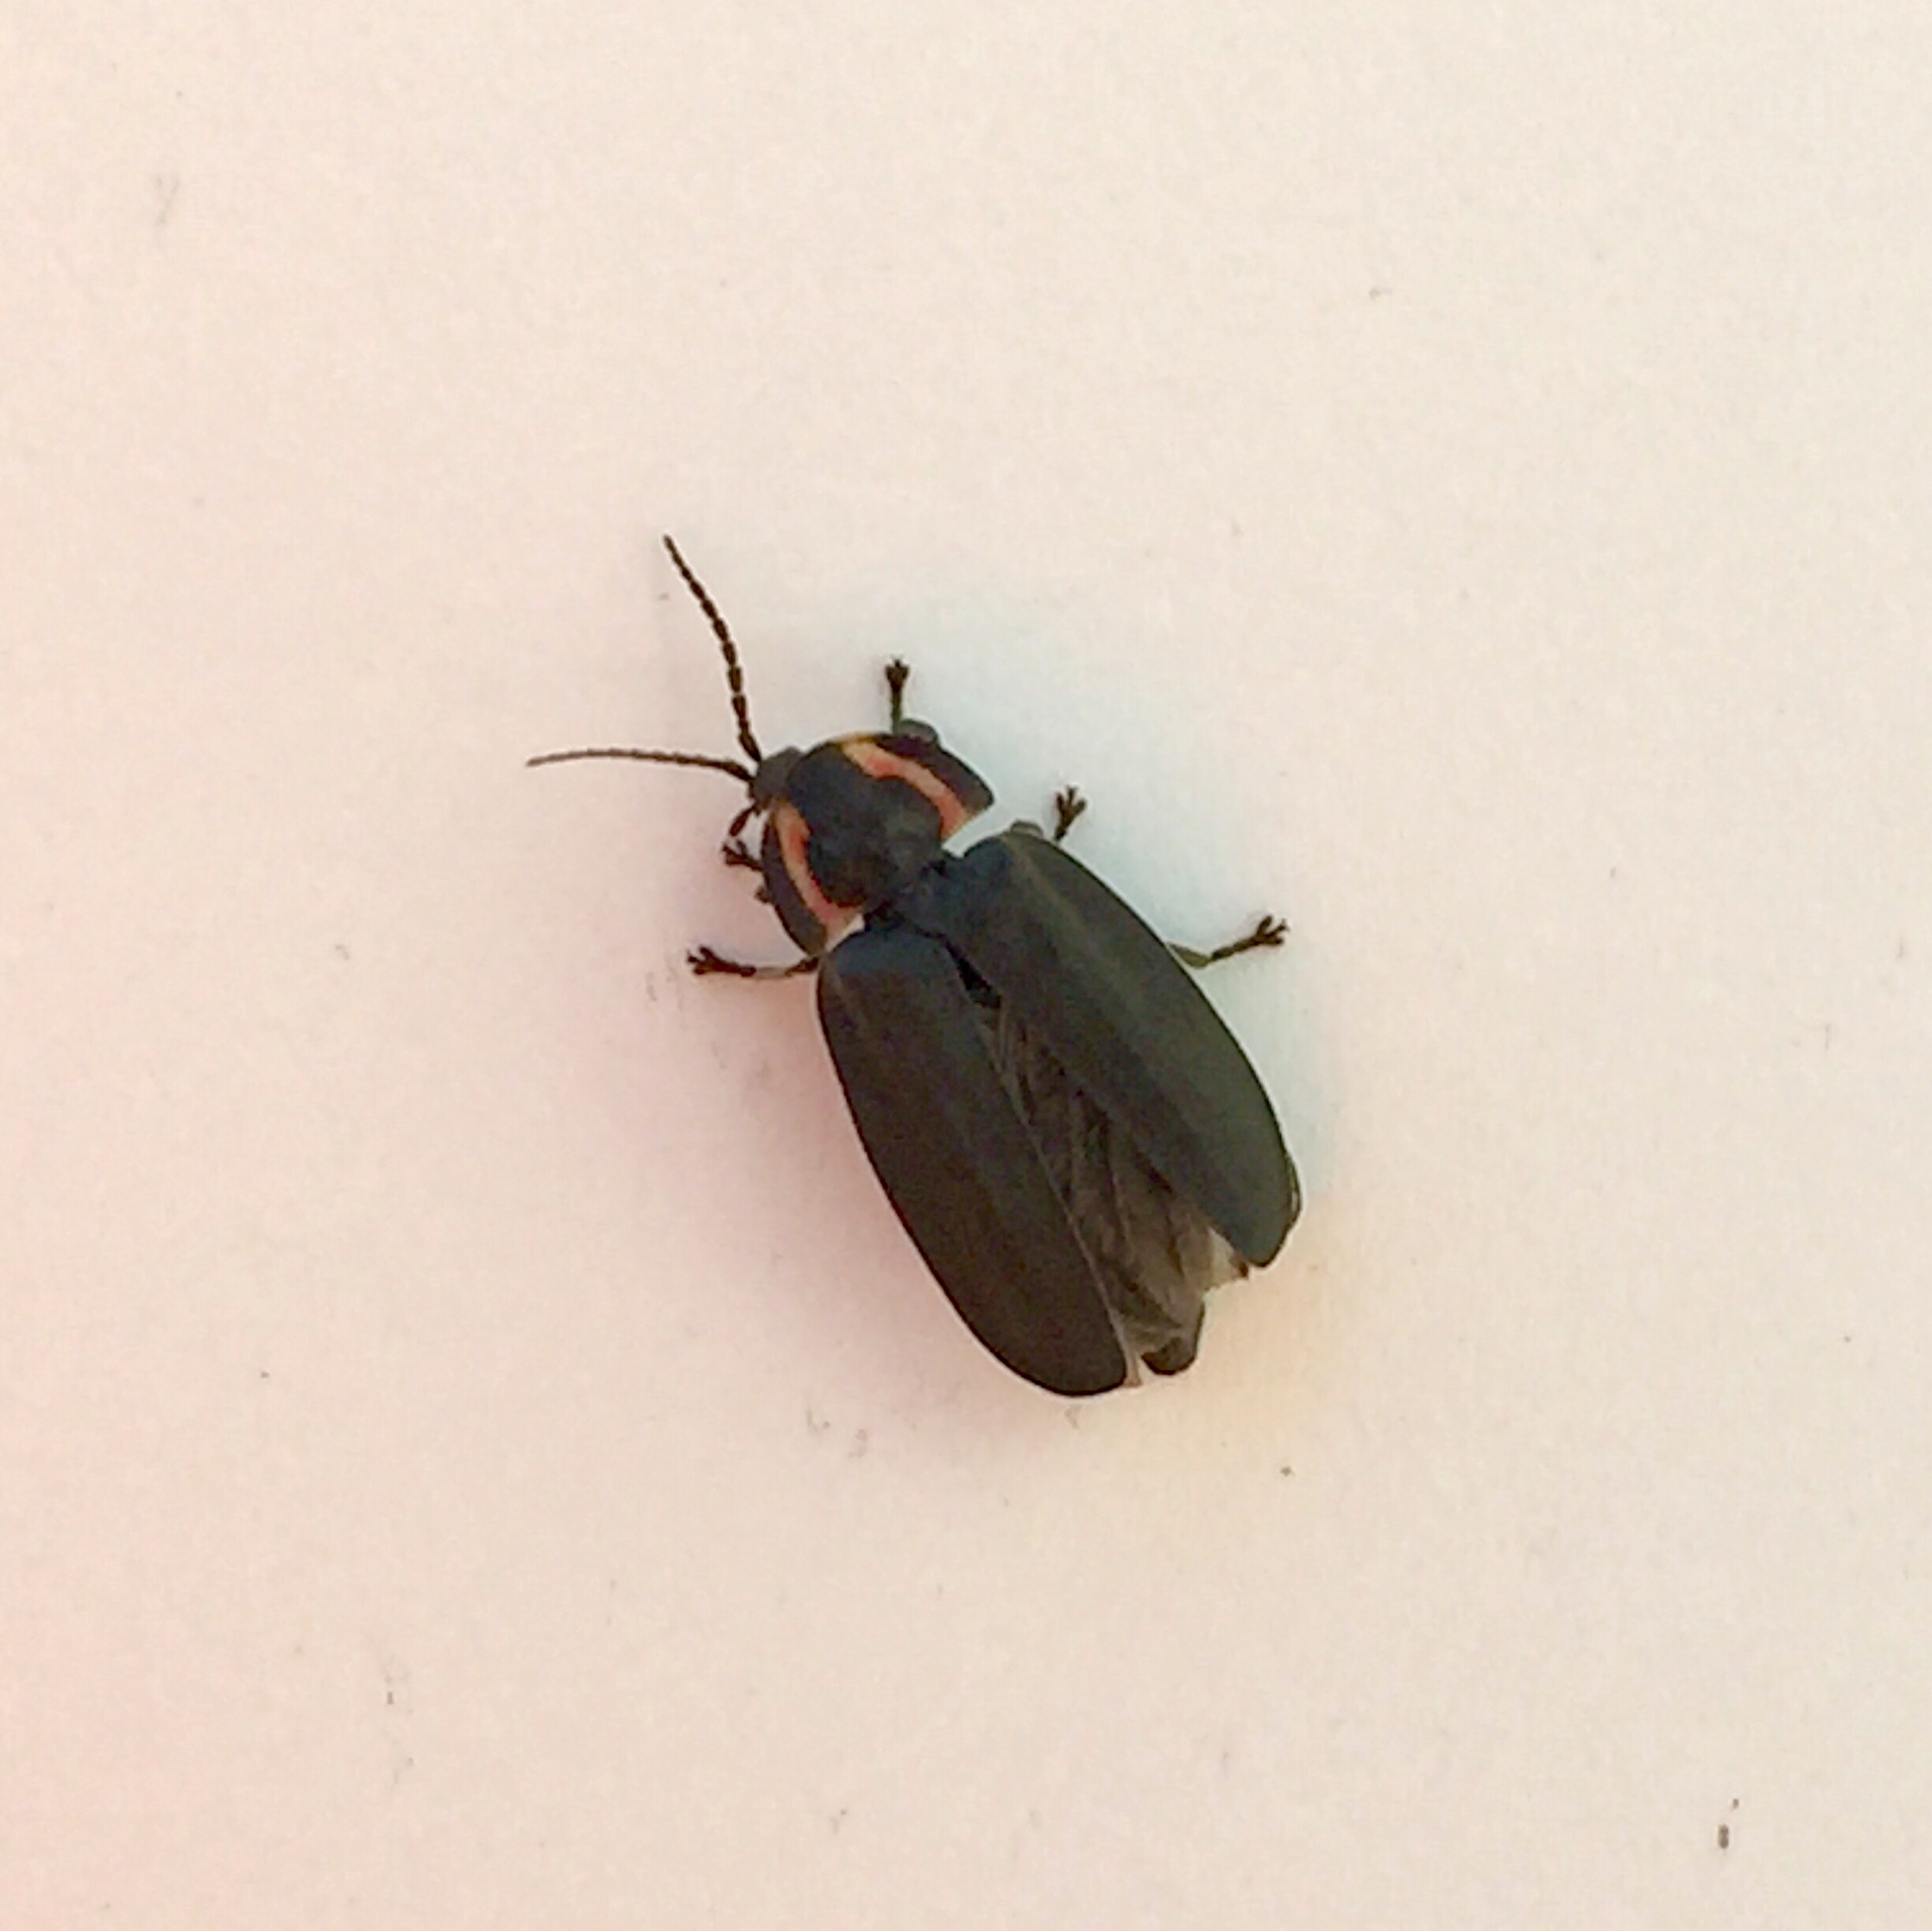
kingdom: Animalia
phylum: Arthropoda
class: Insecta
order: Coleoptera
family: Lampyridae
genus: Photinus
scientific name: Photinus corrusca
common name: Winter firefly
